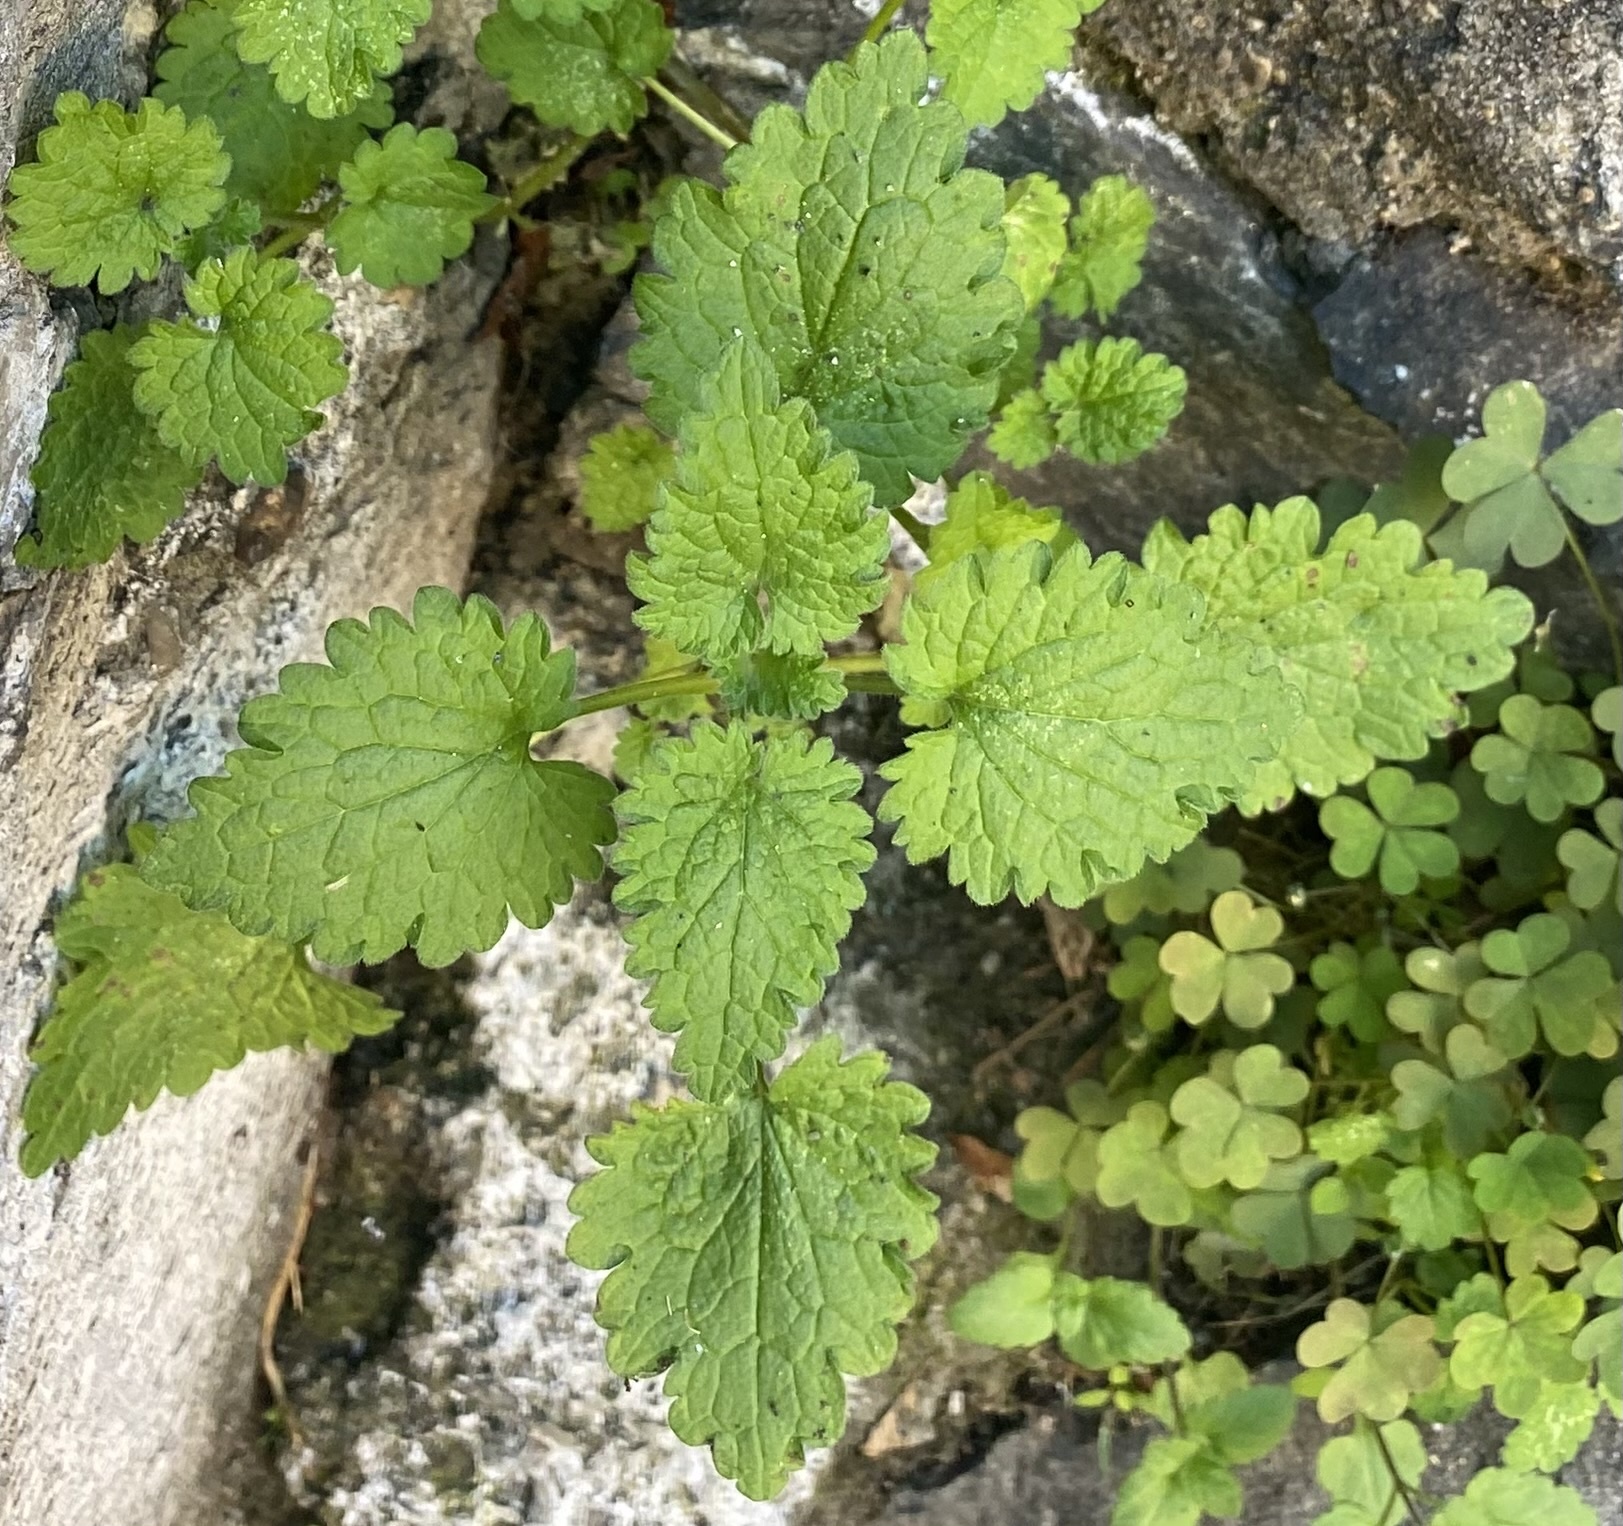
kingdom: Plantae
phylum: Tracheophyta
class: Magnoliopsida
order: Lamiales
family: Lamiaceae
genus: Lamium
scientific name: Lamium hybridum
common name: Cut-leaved dead-nettle
